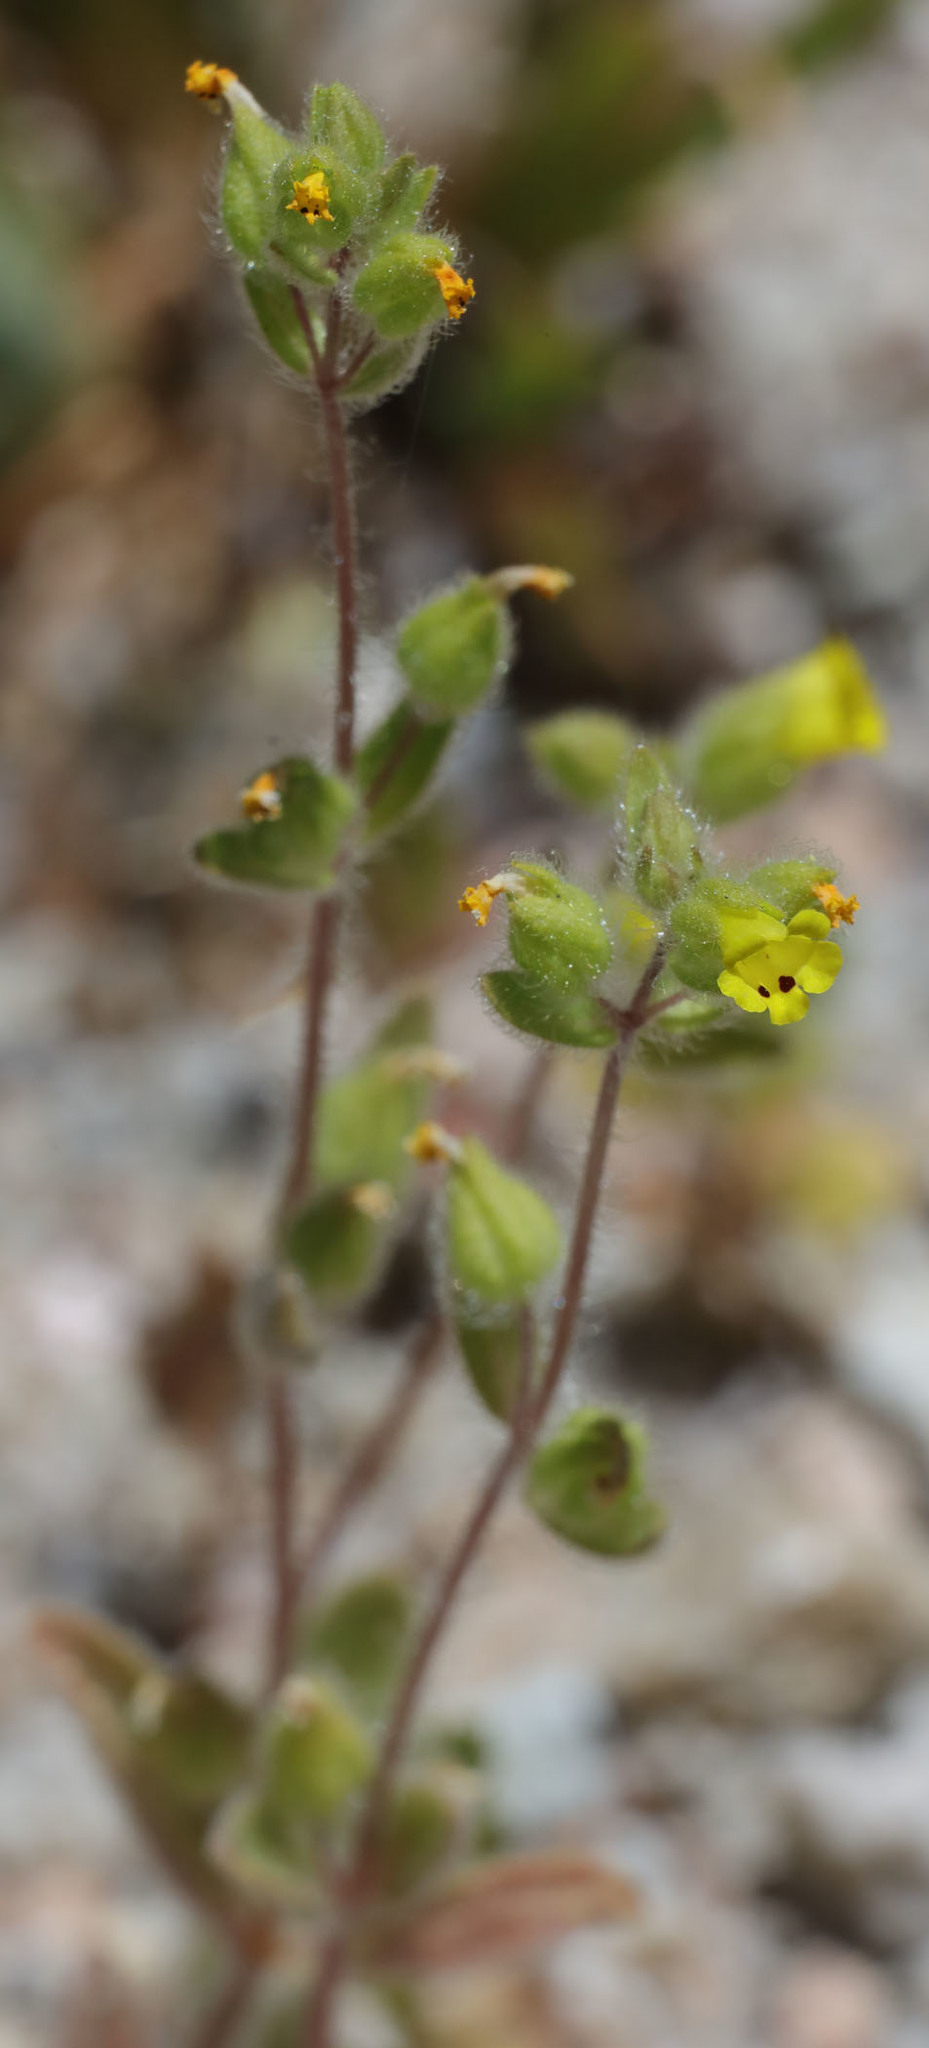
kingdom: Plantae
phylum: Tracheophyta
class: Magnoliopsida
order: Lamiales
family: Phrymaceae
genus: Mimetanthe
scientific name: Mimetanthe pilosa
